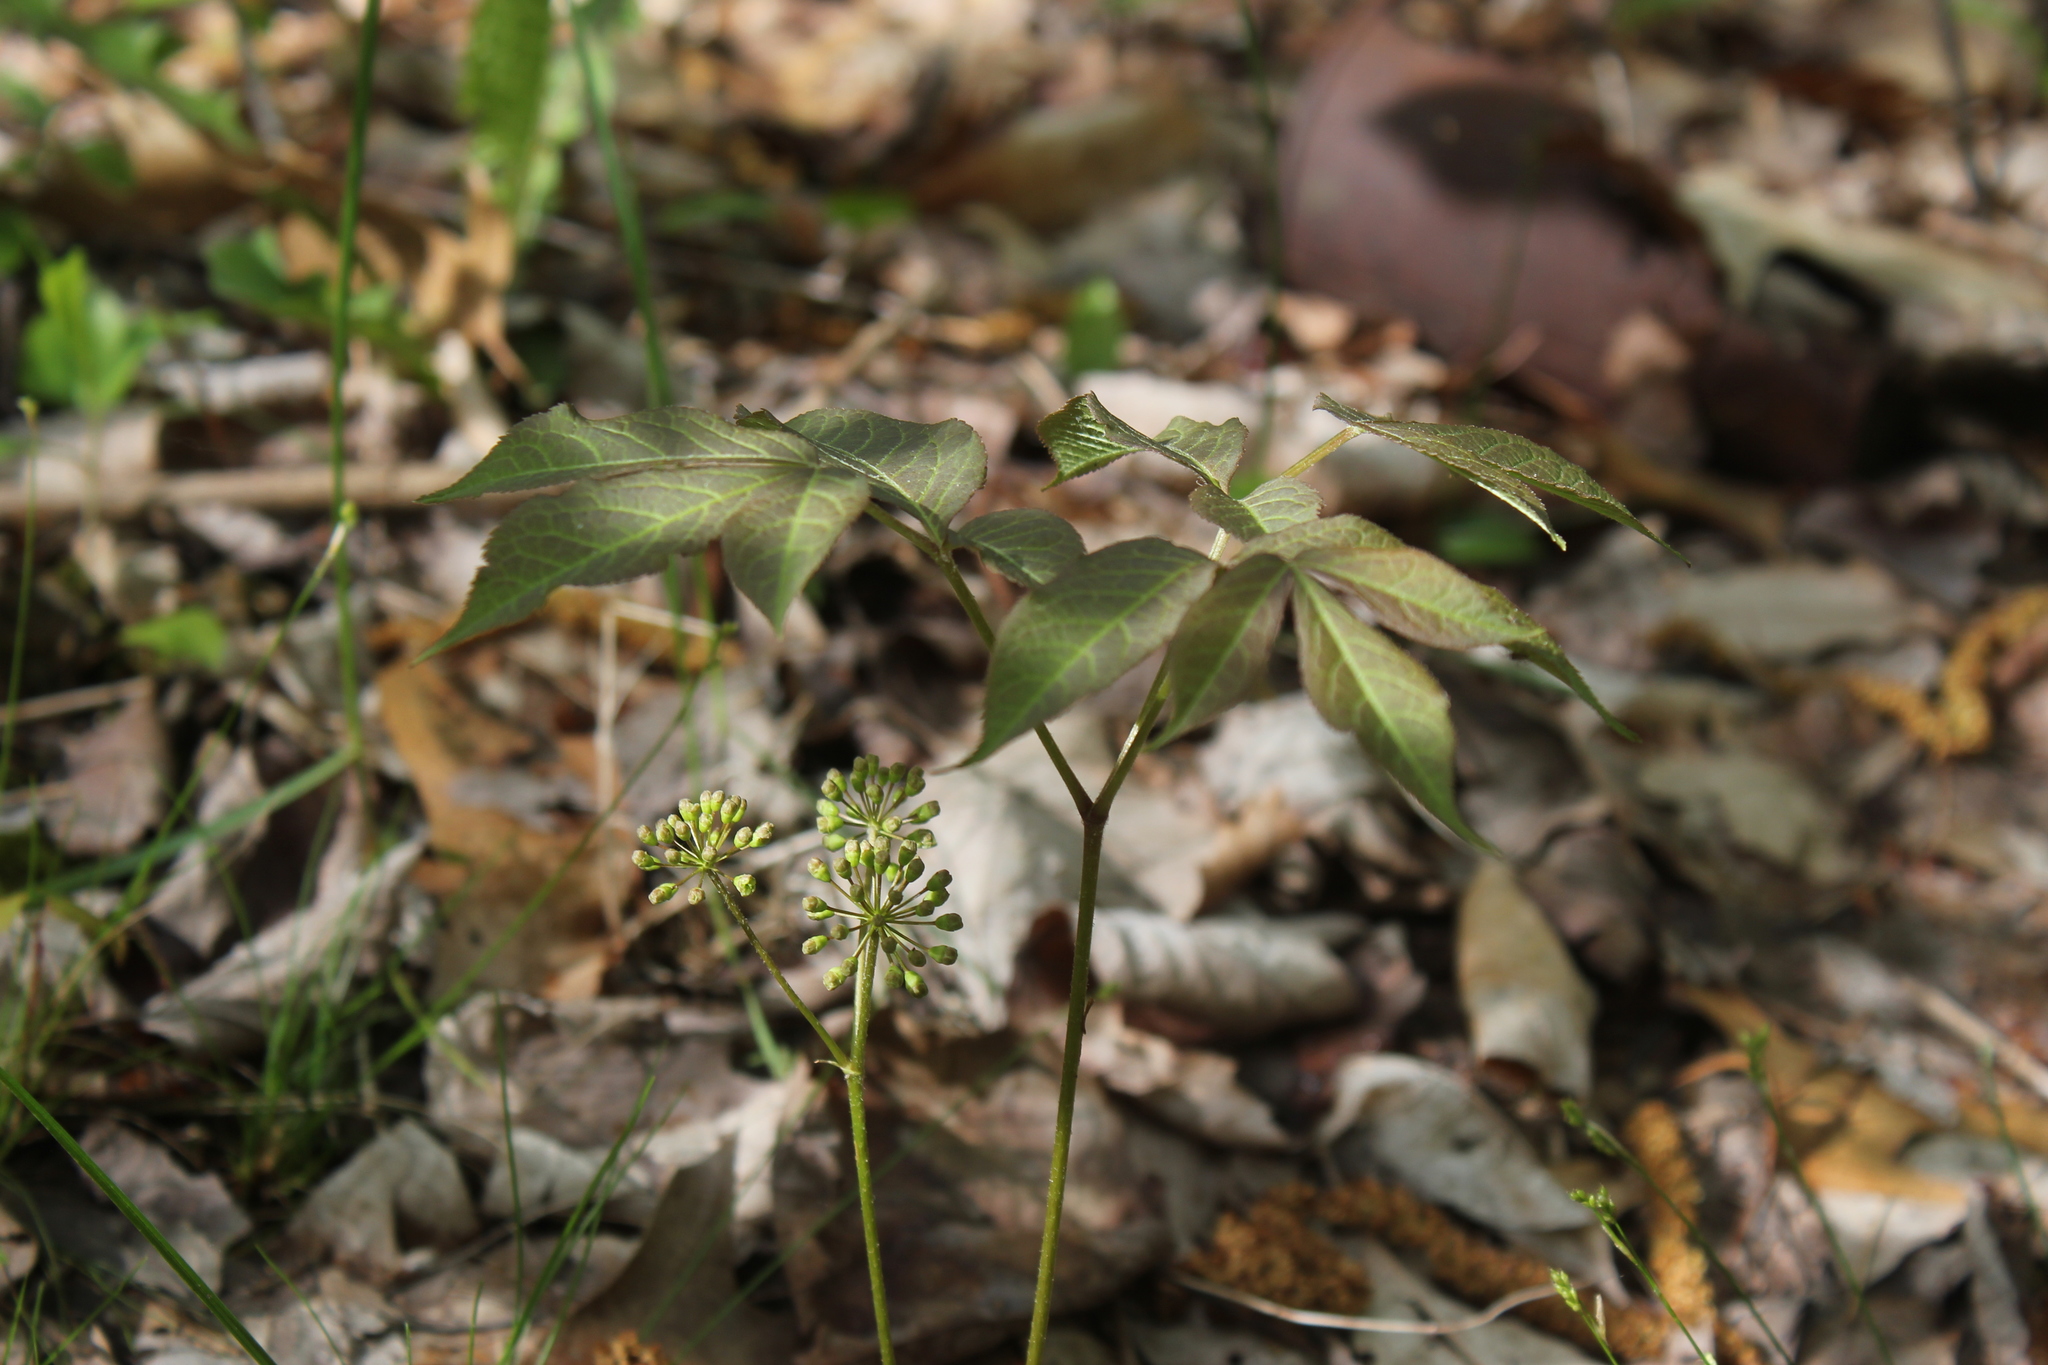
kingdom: Plantae
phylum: Tracheophyta
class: Magnoliopsida
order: Apiales
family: Araliaceae
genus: Aralia
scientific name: Aralia nudicaulis
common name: Wild sarsaparilla
